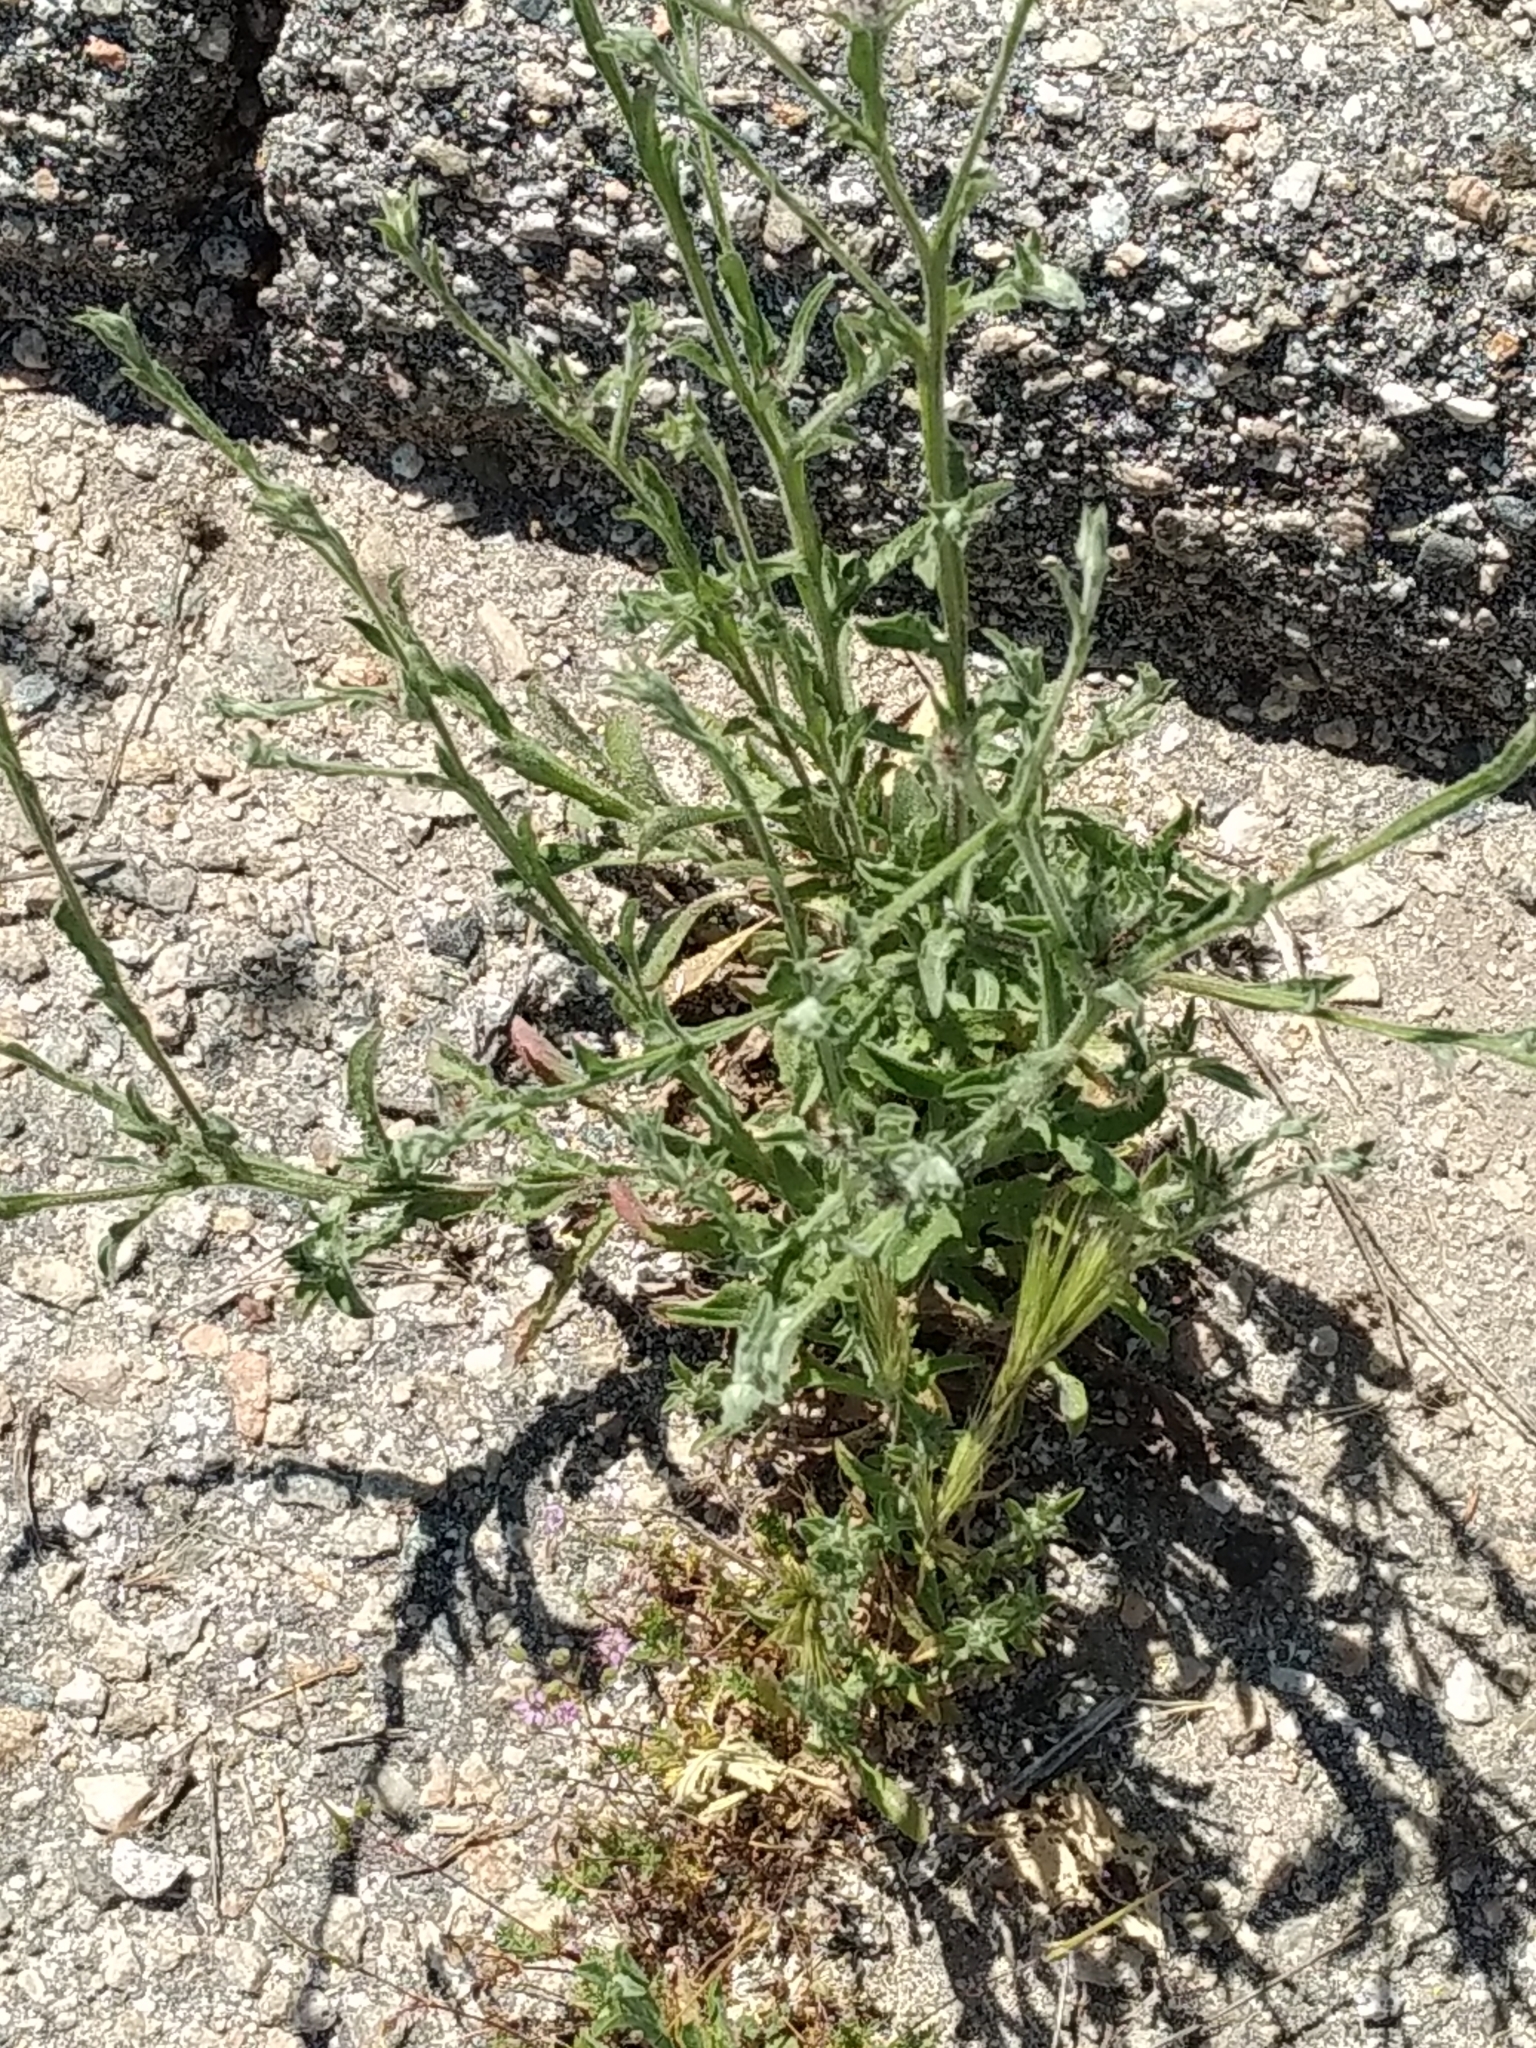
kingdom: Plantae
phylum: Tracheophyta
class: Magnoliopsida
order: Asterales
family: Asteraceae
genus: Centaurea
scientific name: Centaurea melitensis
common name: Maltese star-thistle
